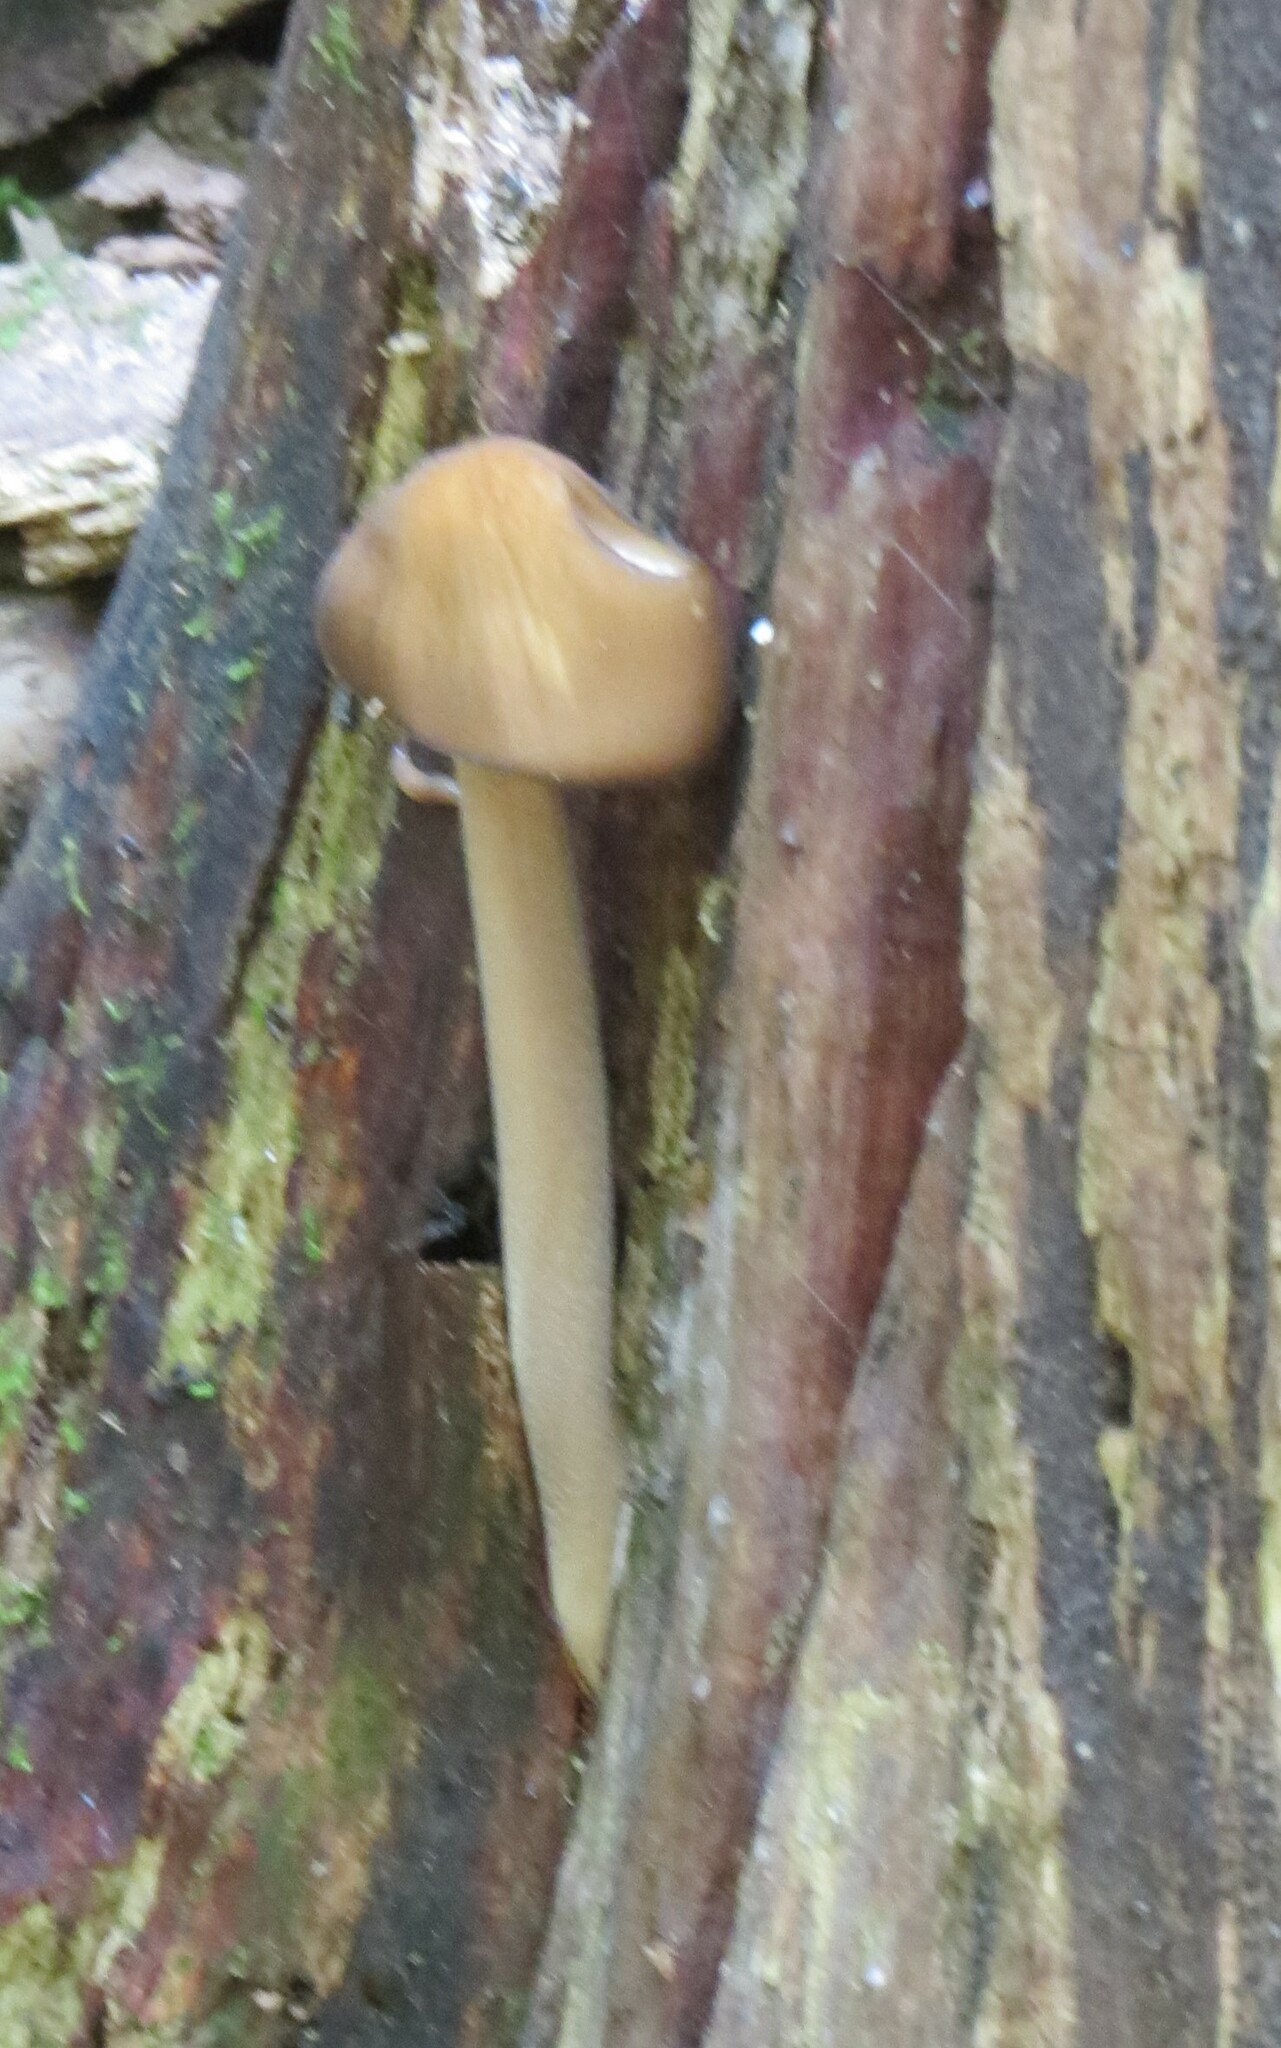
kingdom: Fungi
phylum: Basidiomycota
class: Agaricomycetes
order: Agaricales
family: Physalacriaceae
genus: Hymenopellis
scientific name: Hymenopellis furfuracea
